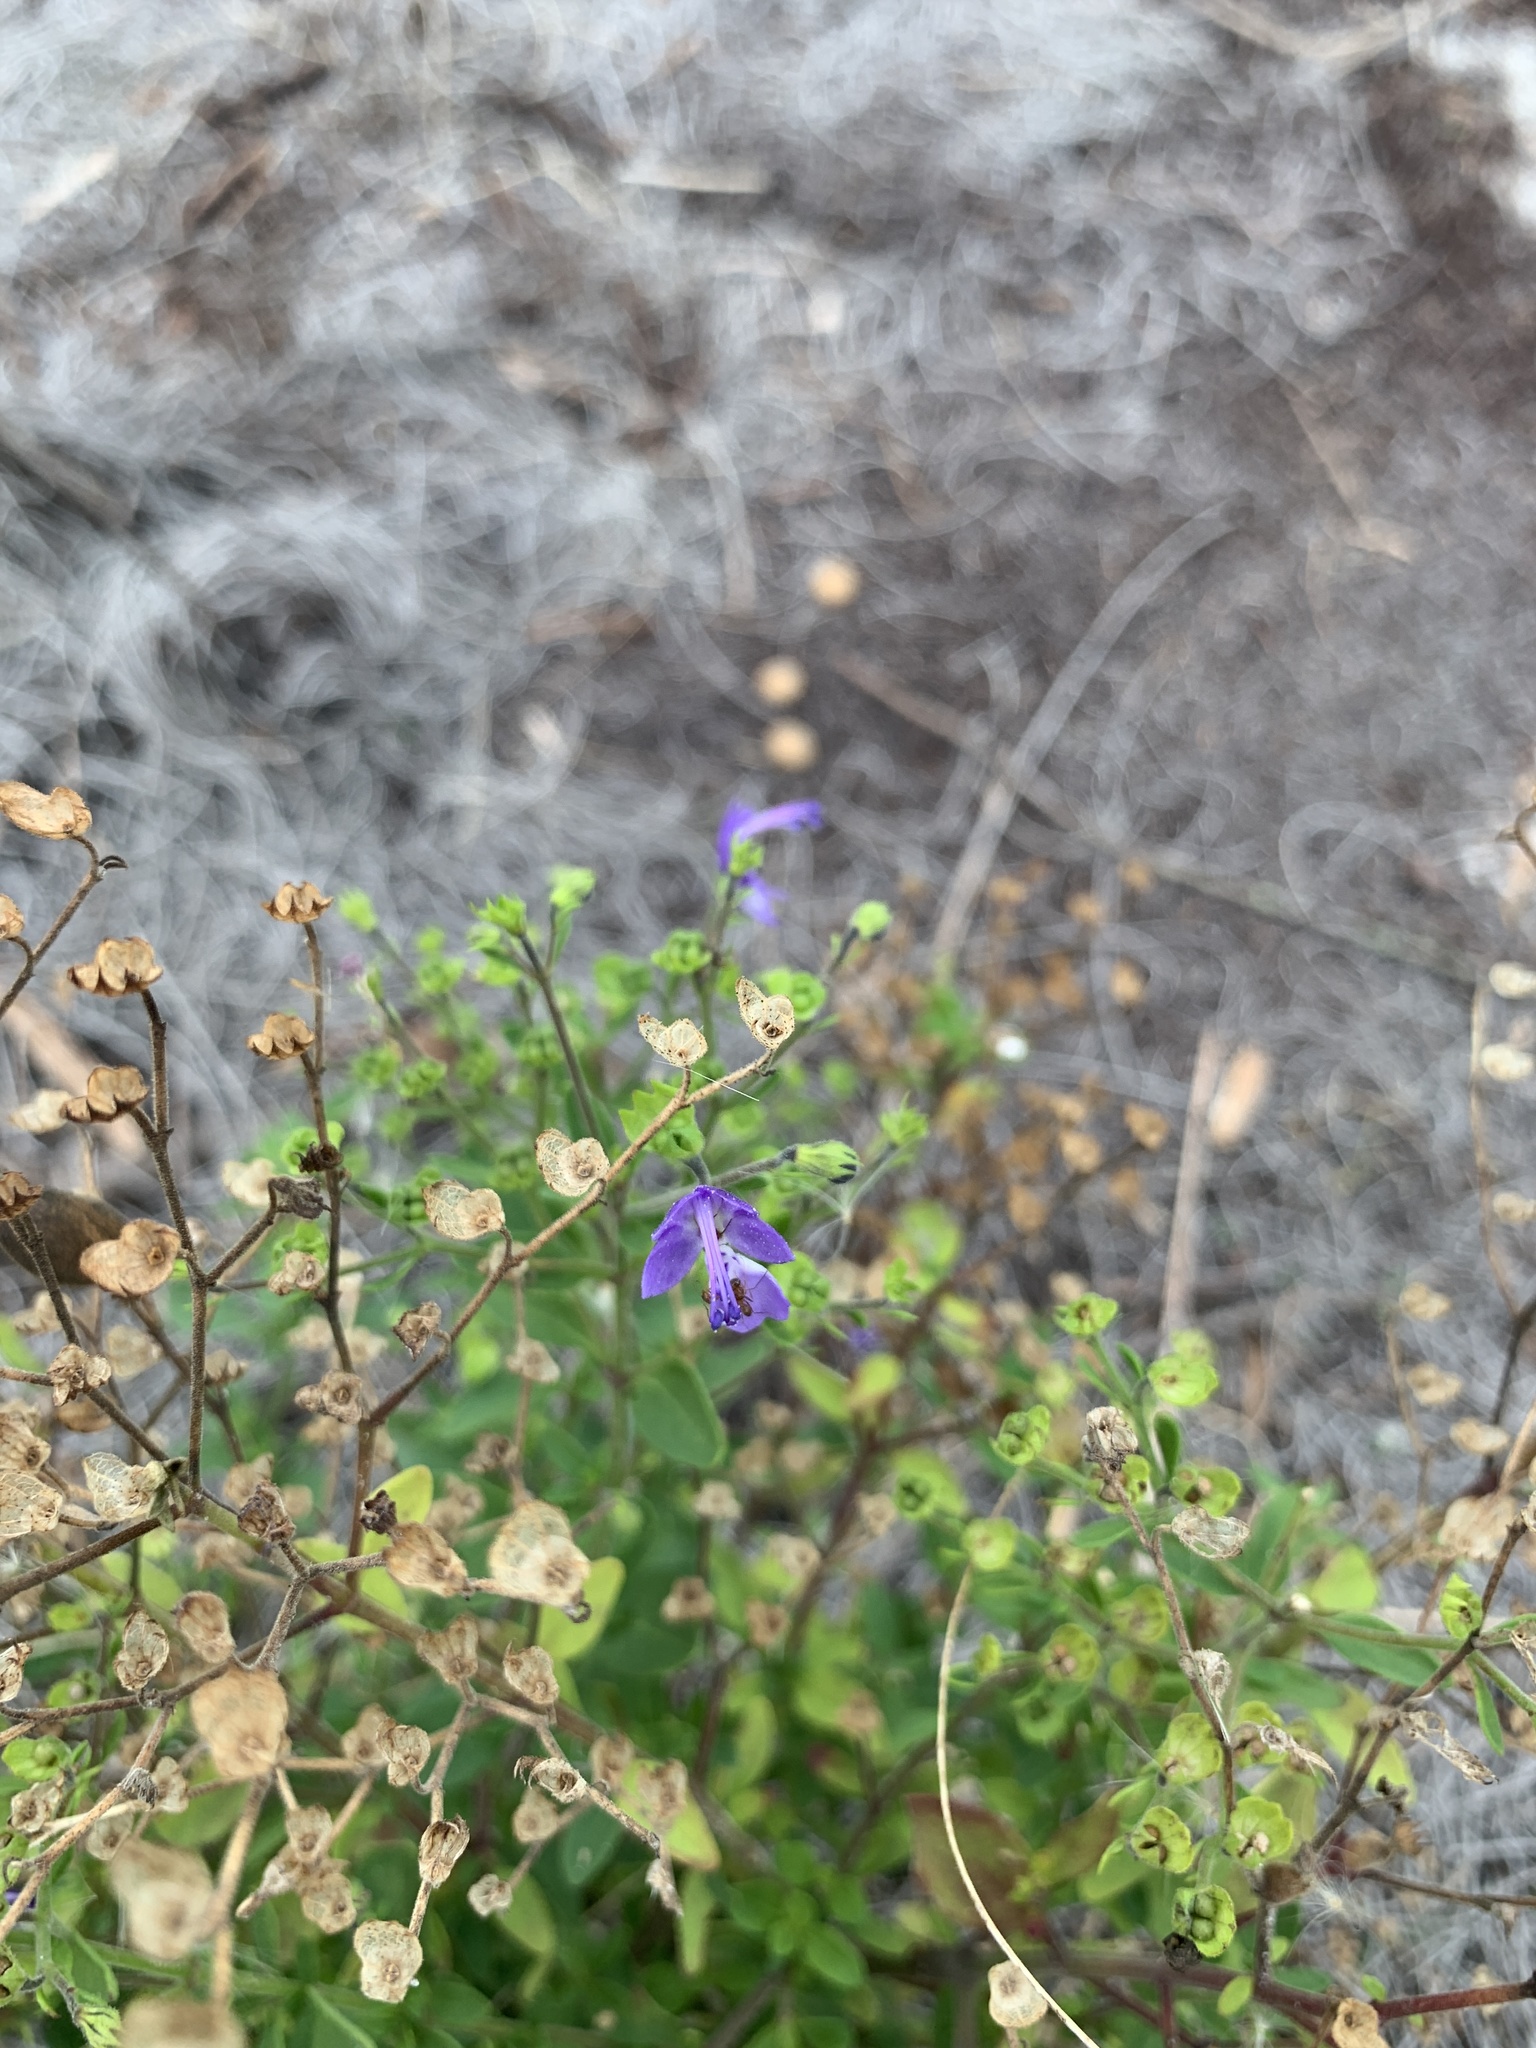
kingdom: Plantae
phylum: Tracheophyta
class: Magnoliopsida
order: Lamiales
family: Lamiaceae
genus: Trichostema
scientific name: Trichostema
